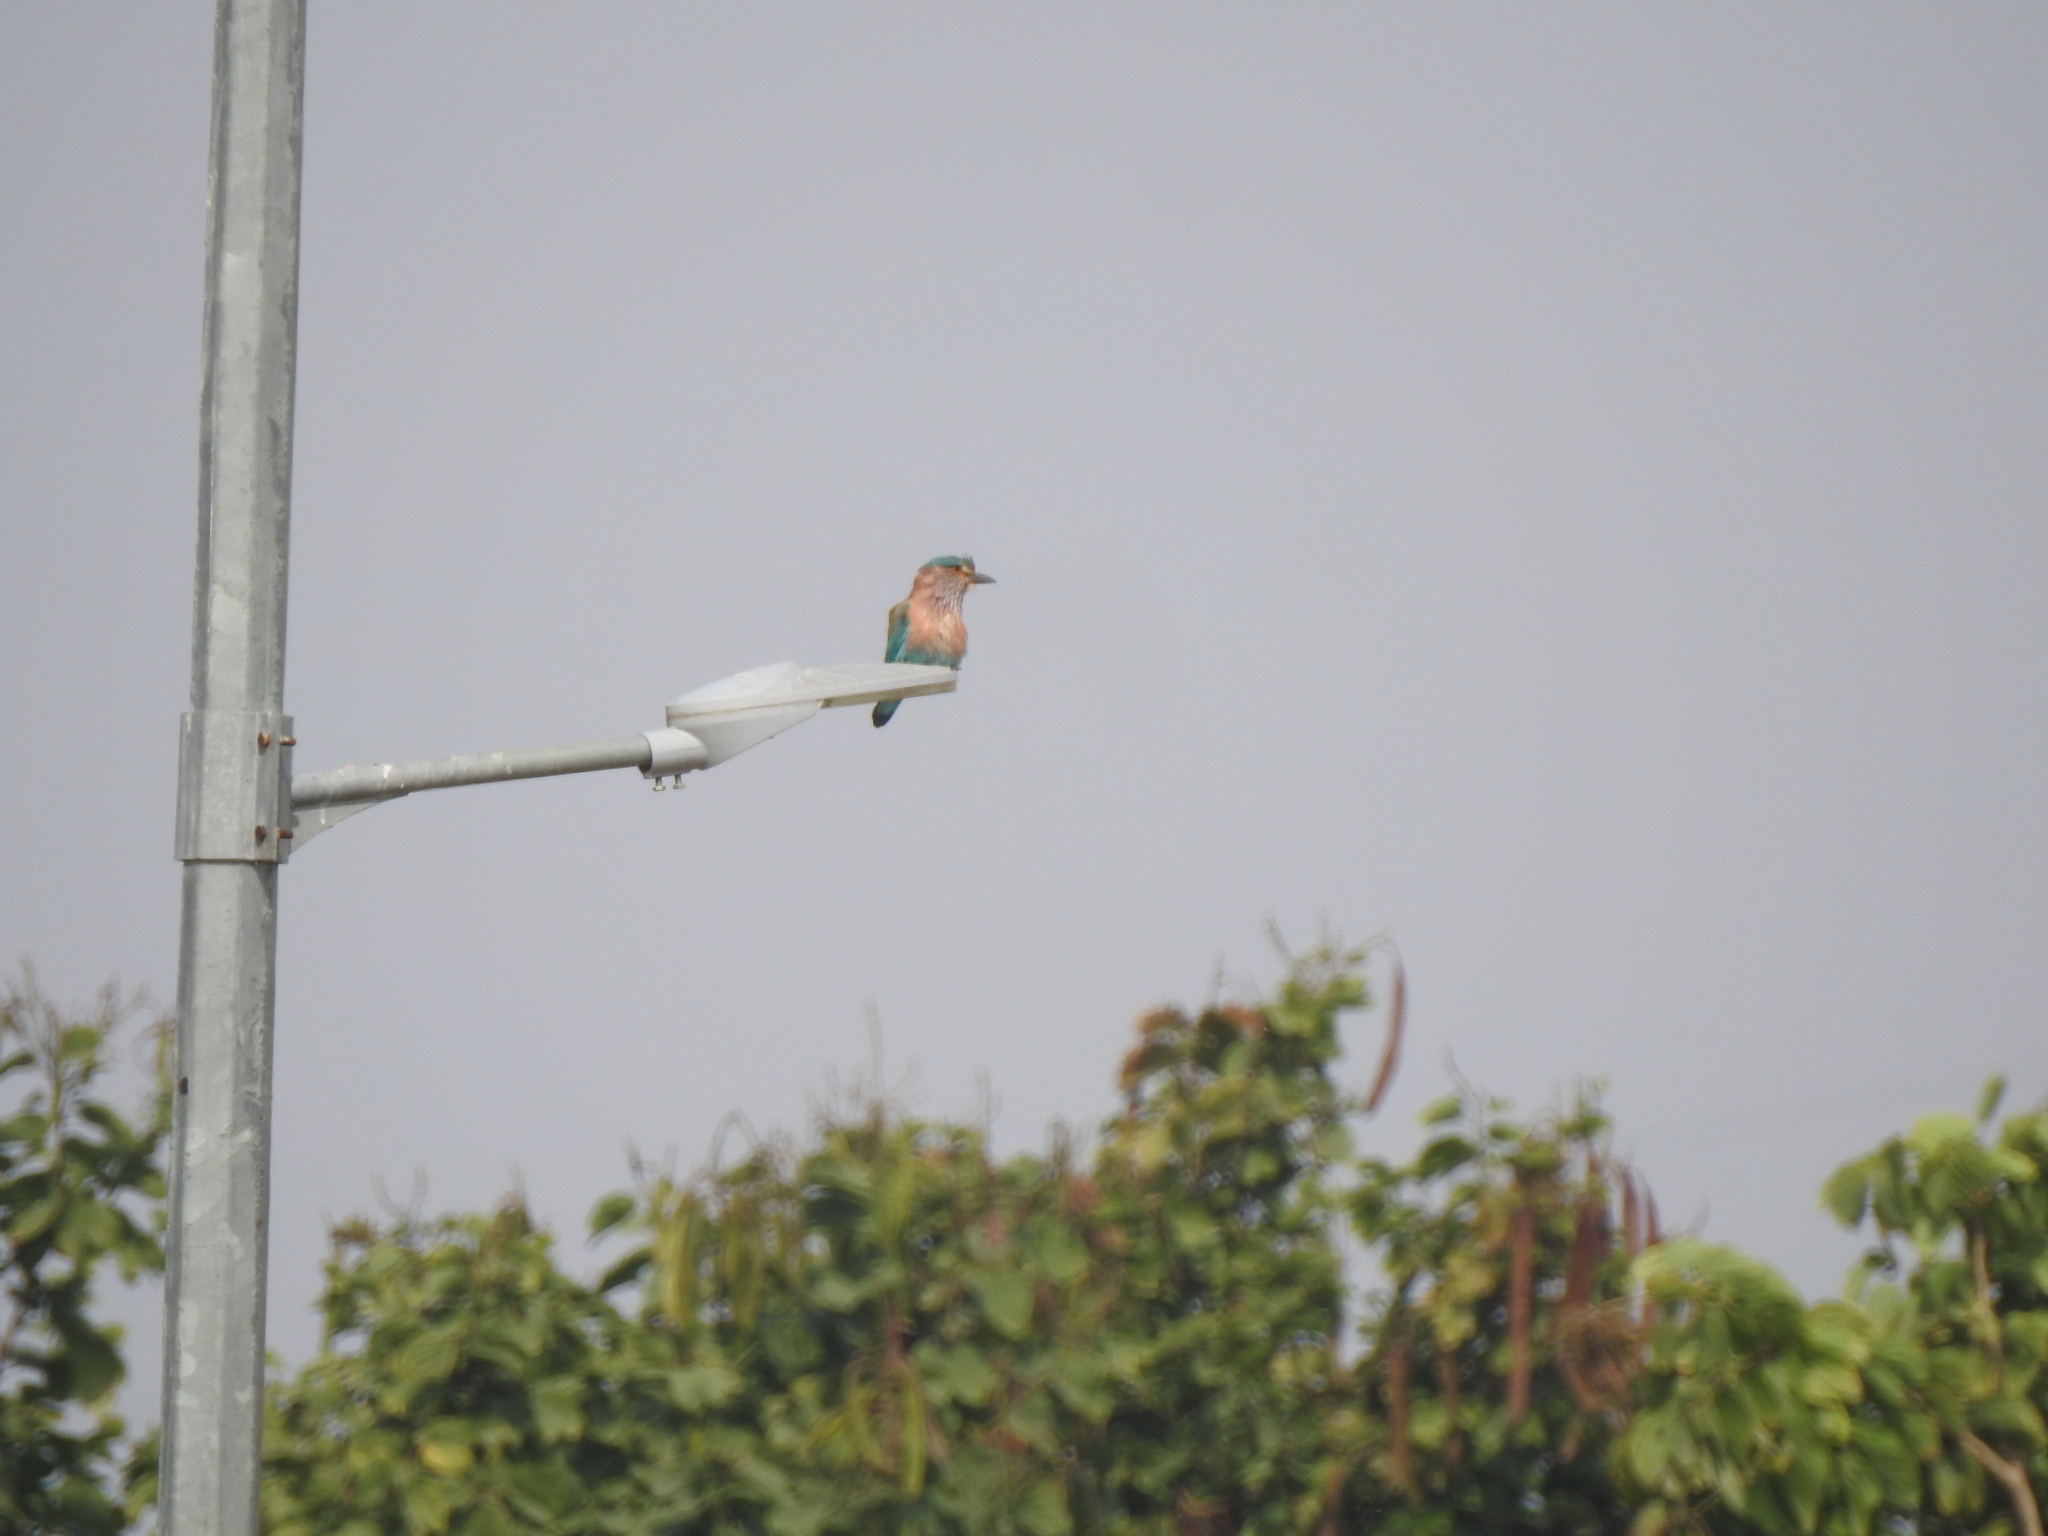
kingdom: Animalia
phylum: Chordata
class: Aves
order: Coraciiformes
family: Coraciidae
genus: Coracias
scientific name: Coracias benghalensis
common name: Indian roller
